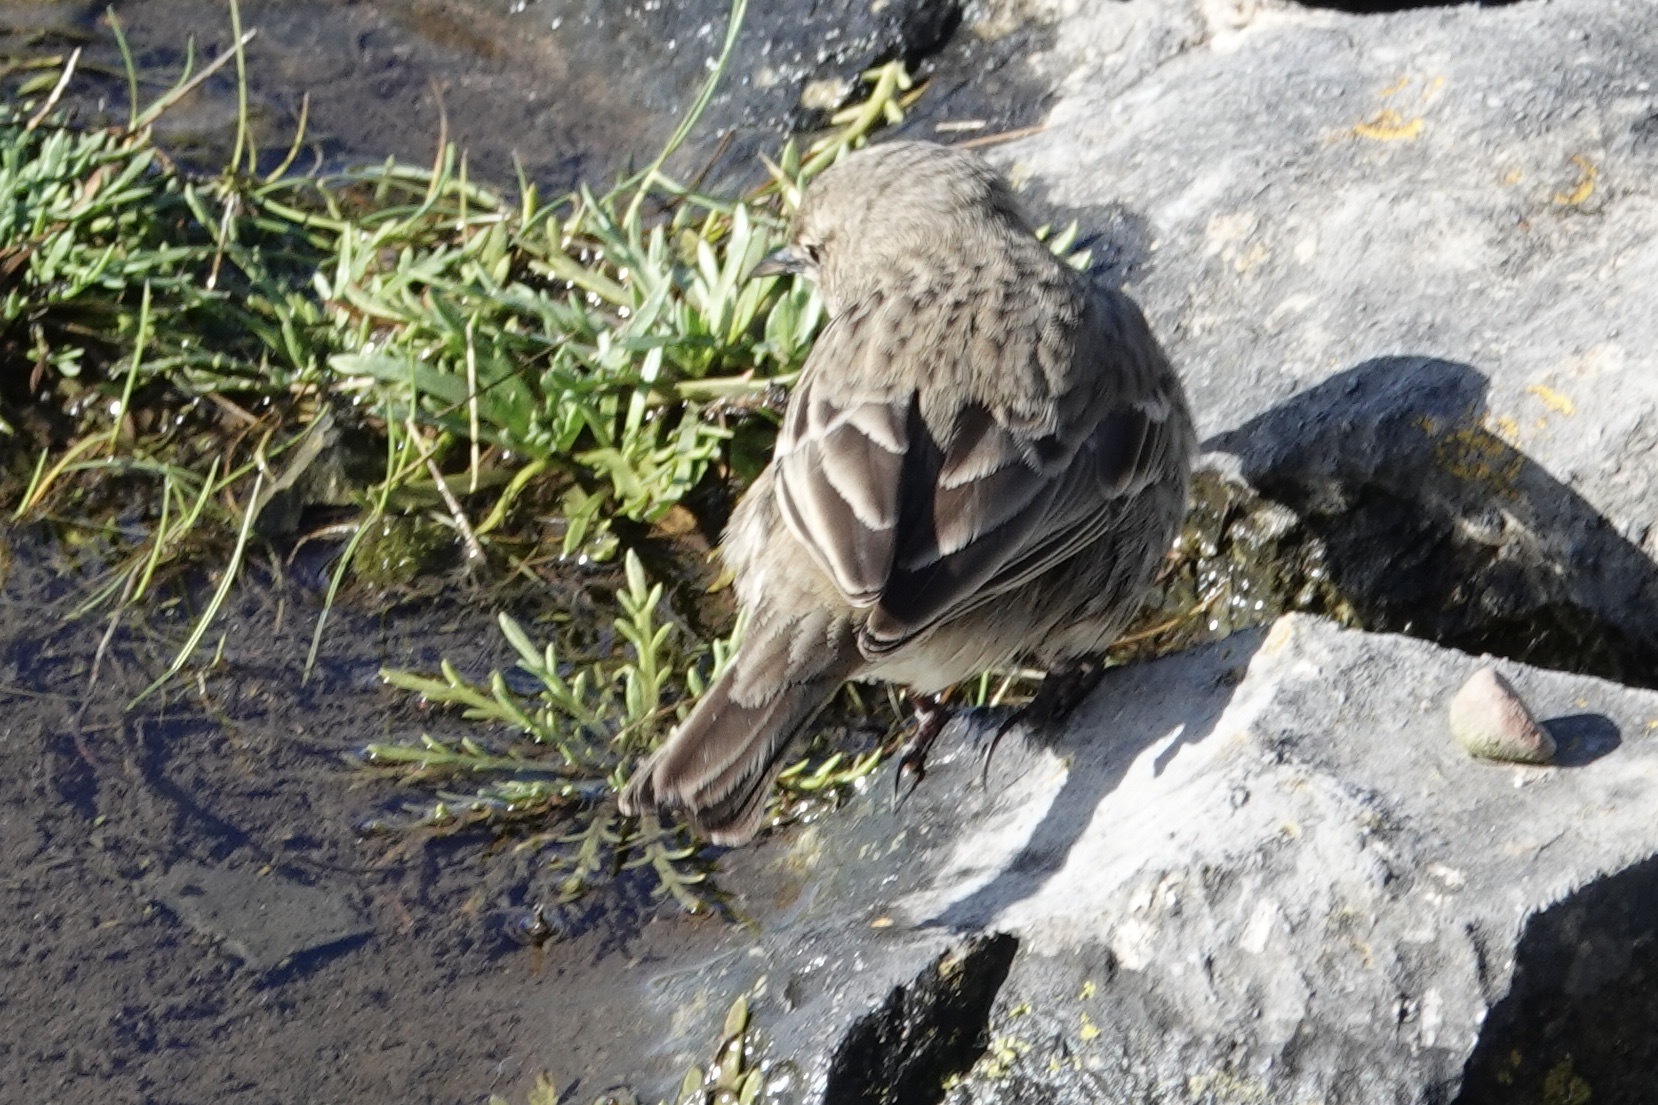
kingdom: Animalia
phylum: Chordata
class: Aves
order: Passeriformes
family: Motacillidae
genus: Anthus
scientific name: Anthus petrosus
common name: Eurasian rock pipit
